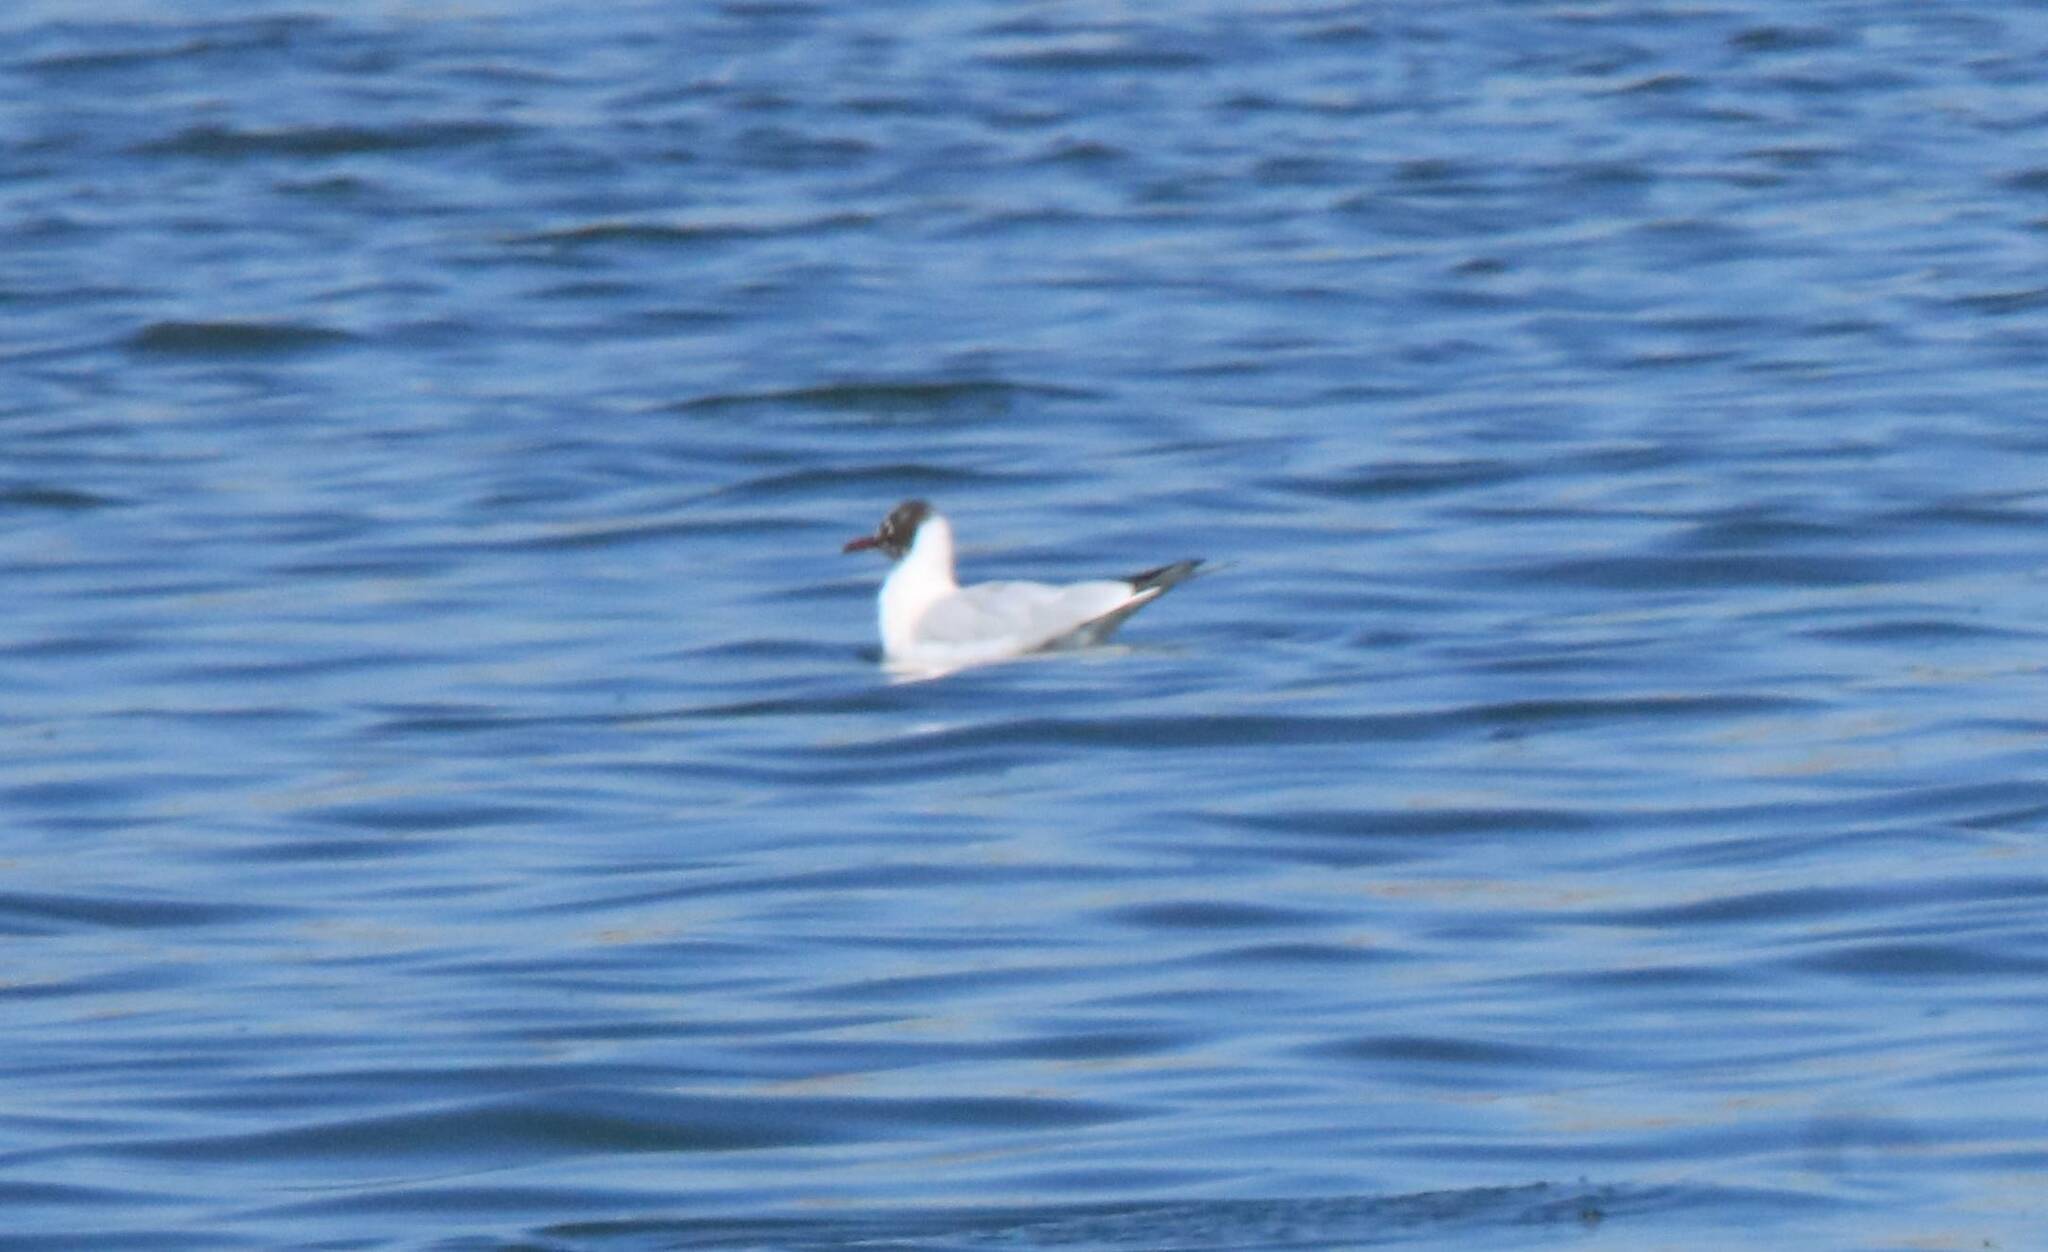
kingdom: Animalia
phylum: Chordata
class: Aves
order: Charadriiformes
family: Laridae
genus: Chroicocephalus
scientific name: Chroicocephalus ridibundus
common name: Black-headed gull
